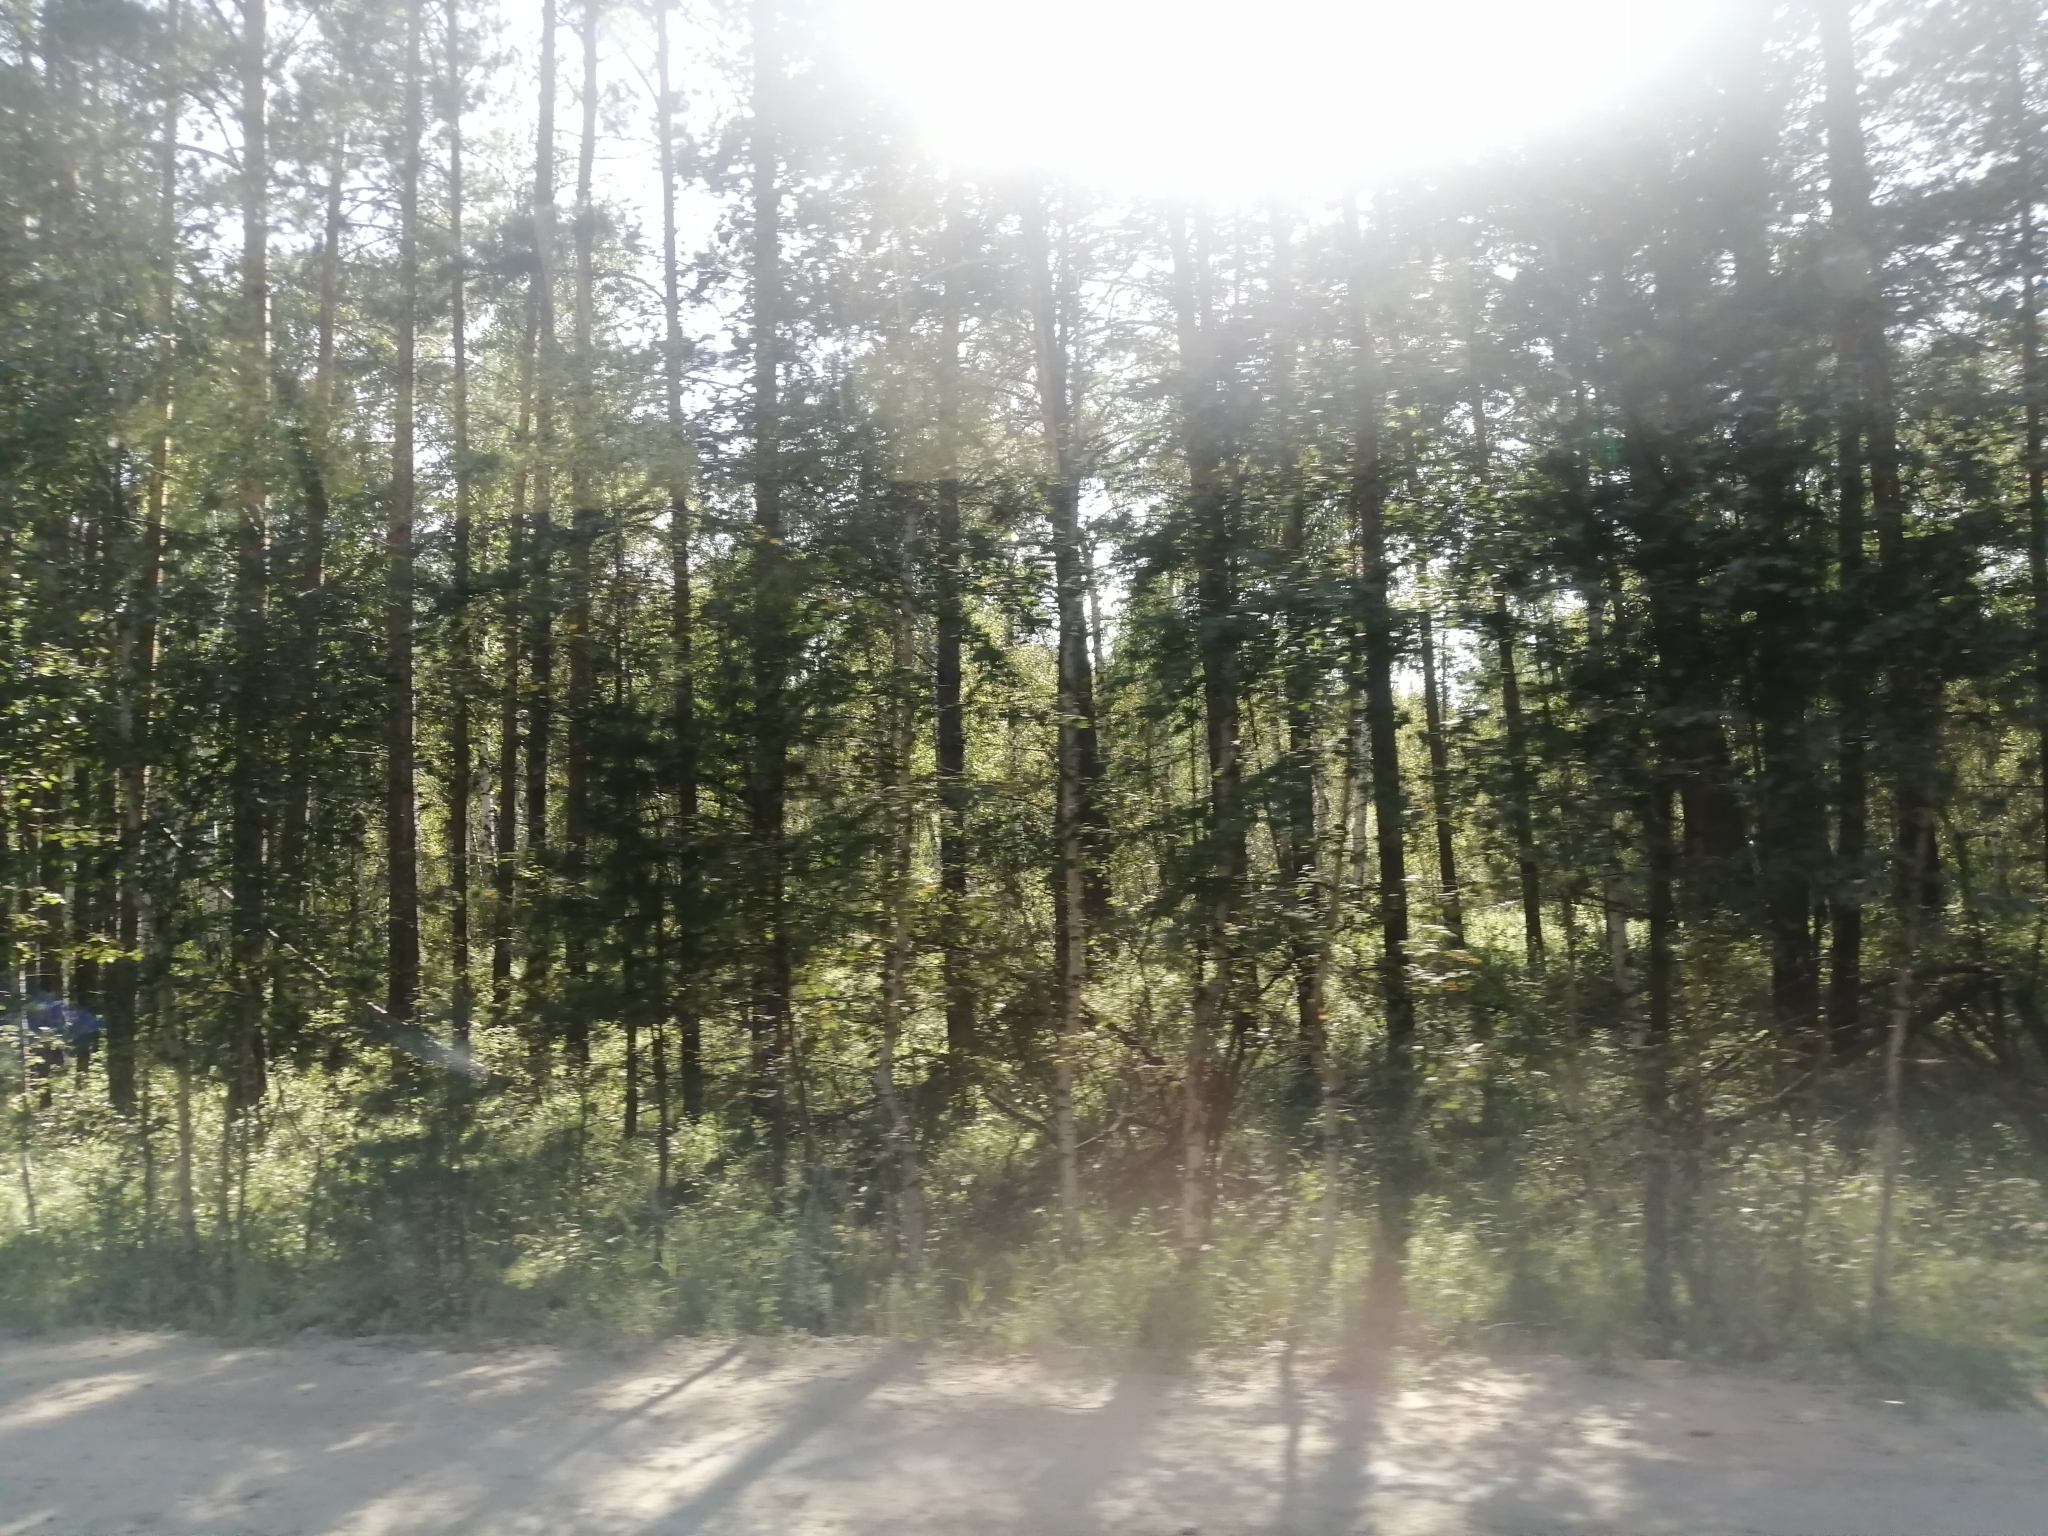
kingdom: Plantae
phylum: Tracheophyta
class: Pinopsida
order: Pinales
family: Pinaceae
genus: Pinus
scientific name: Pinus sylvestris
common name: Scots pine
